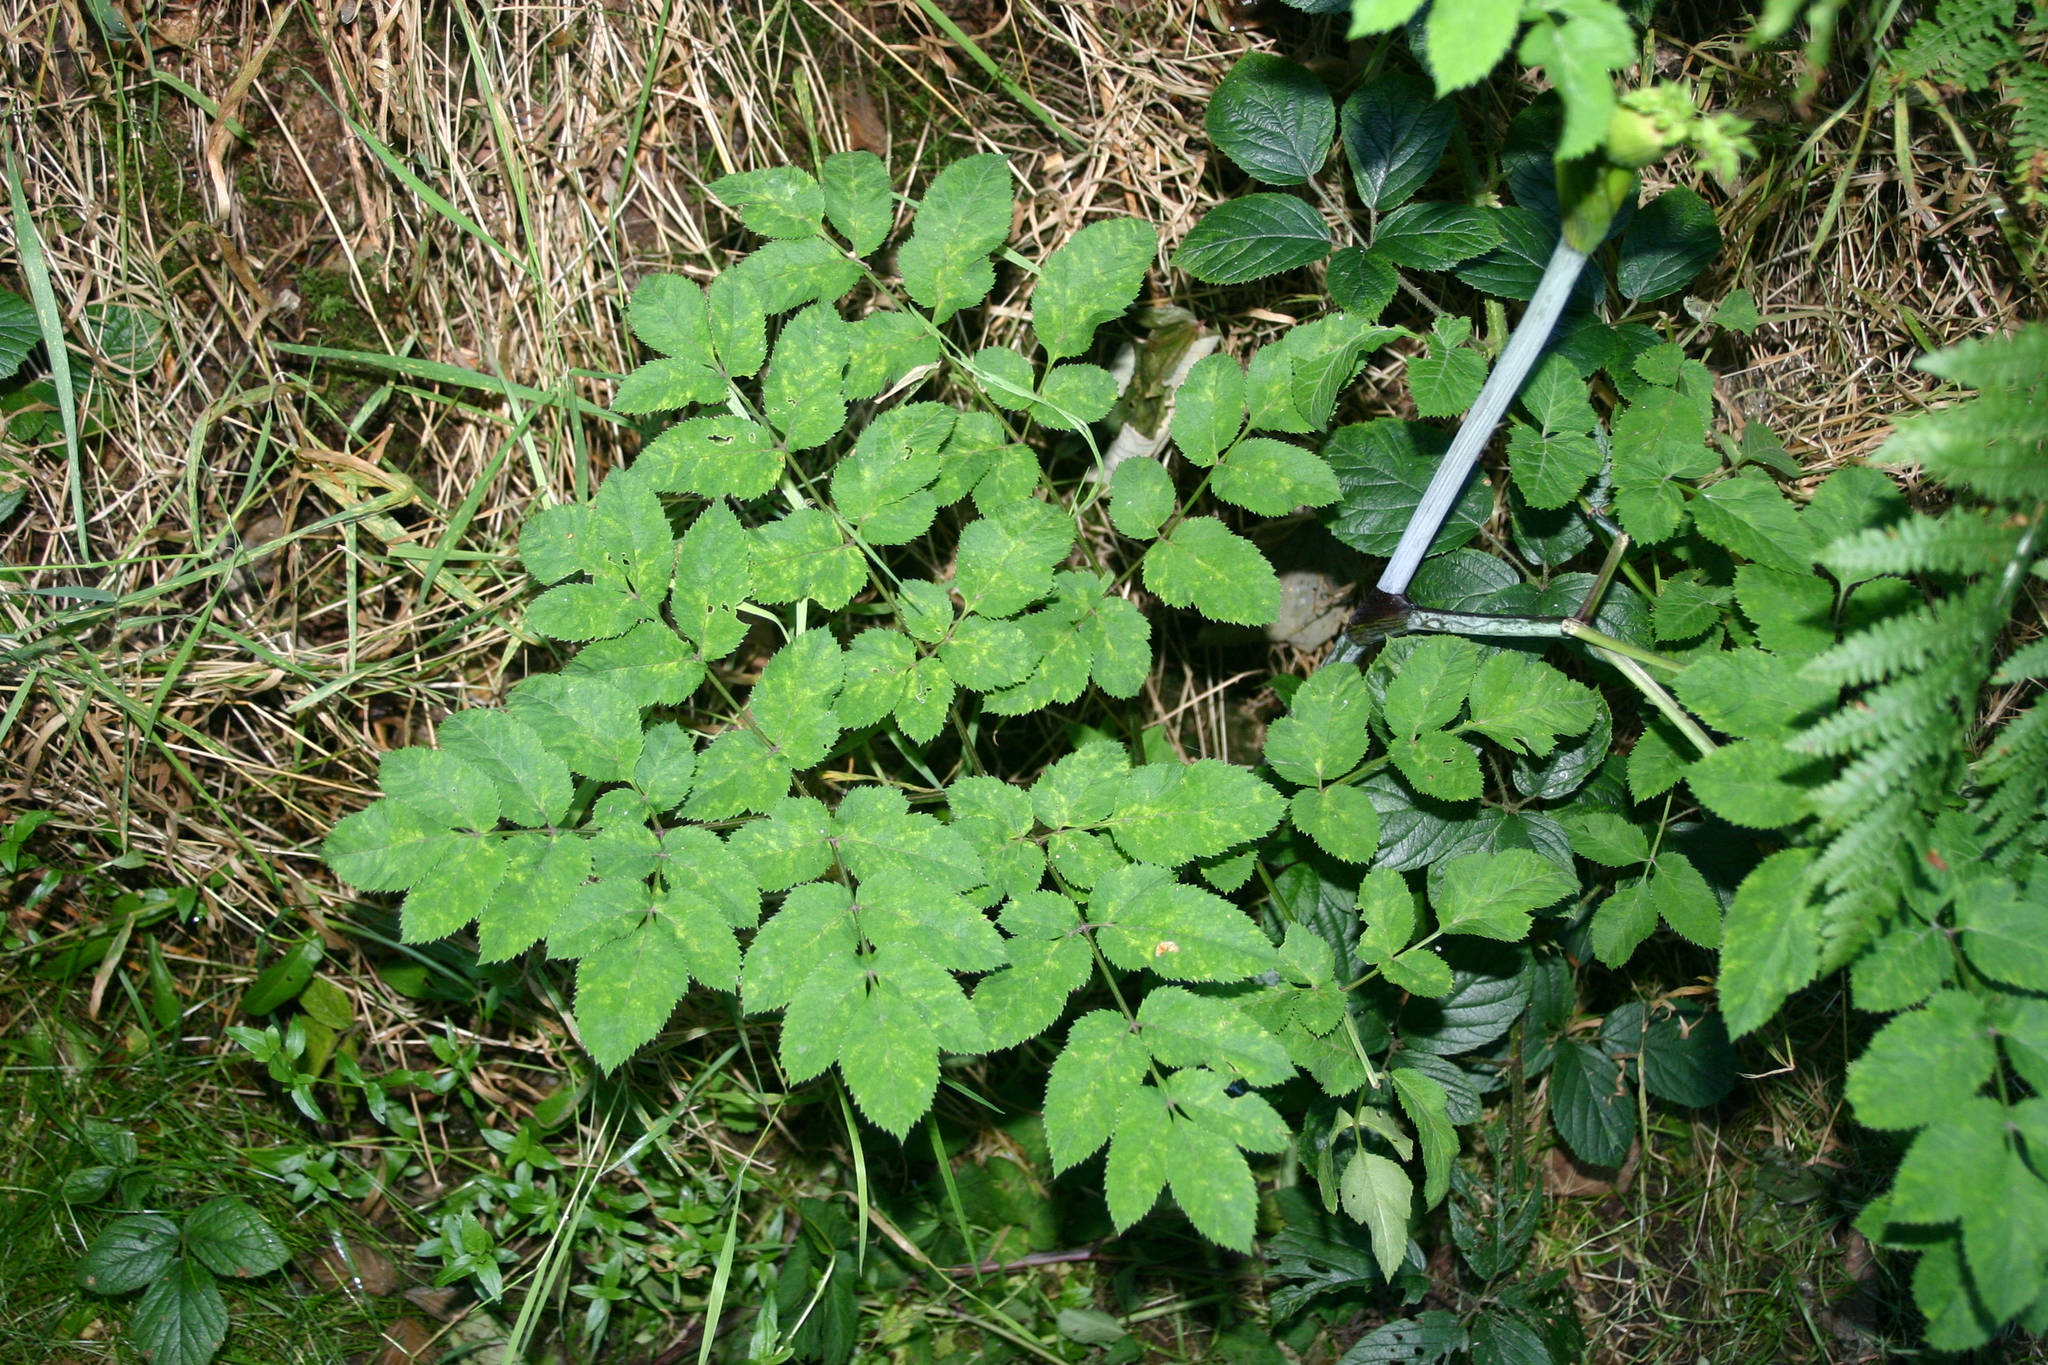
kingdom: Plantae
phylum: Tracheophyta
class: Magnoliopsida
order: Apiales
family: Apiaceae
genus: Angelica
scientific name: Angelica sylvestris
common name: Wild angelica
